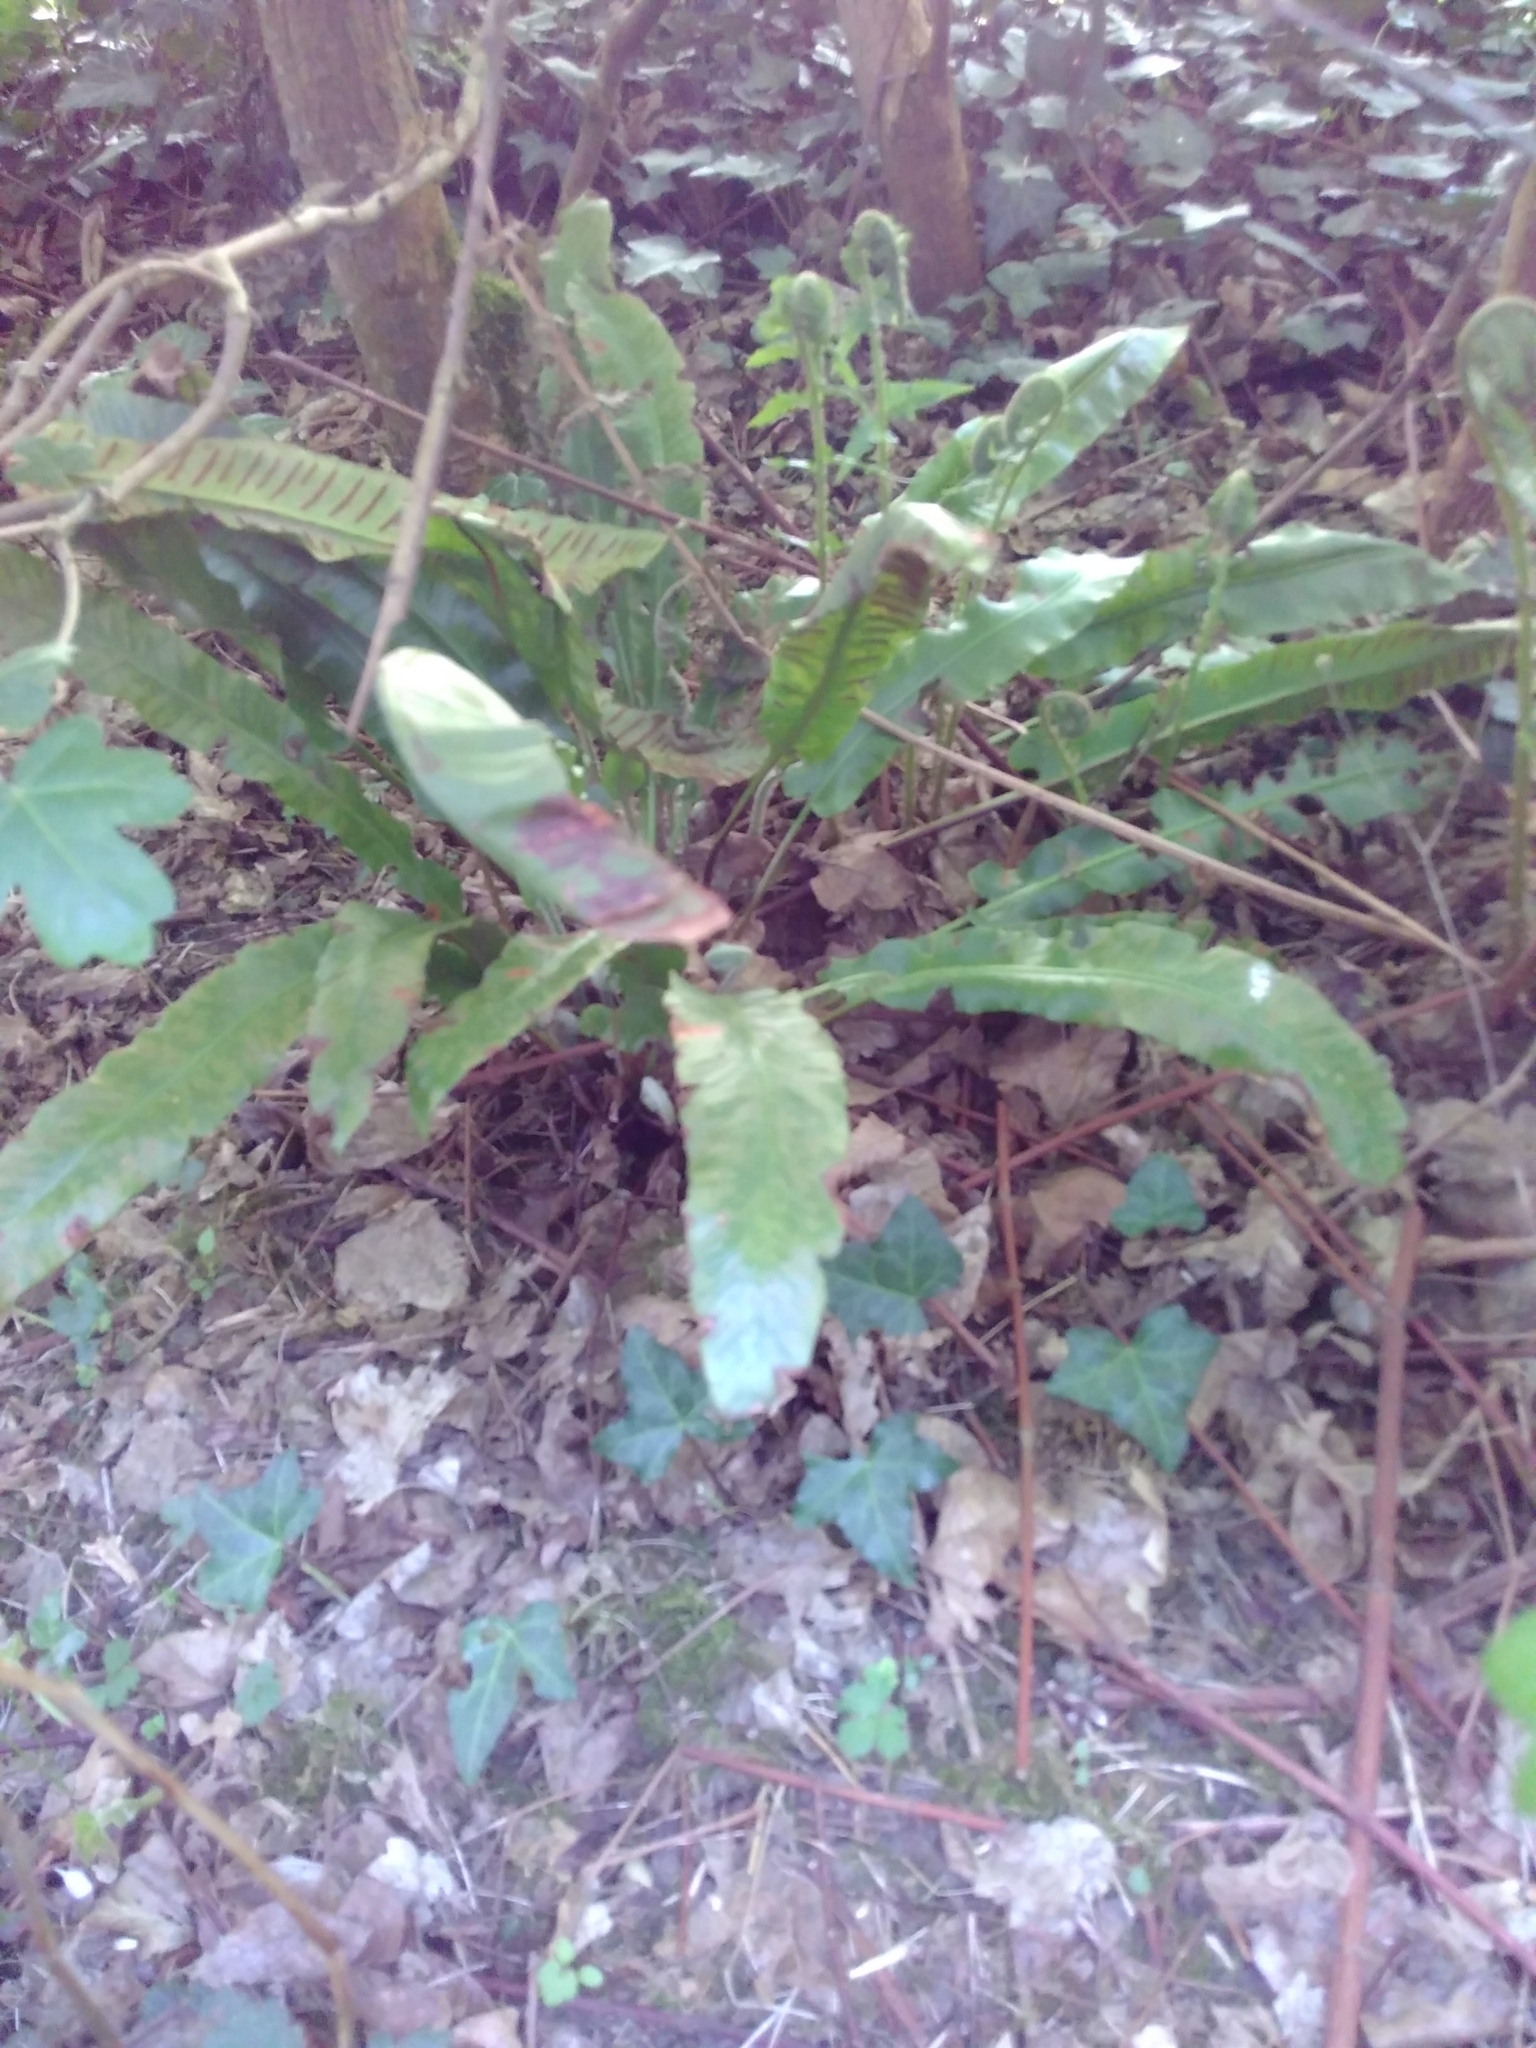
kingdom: Plantae
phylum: Tracheophyta
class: Polypodiopsida
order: Polypodiales
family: Aspleniaceae
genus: Asplenium
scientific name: Asplenium scolopendrium
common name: Hart's-tongue fern
